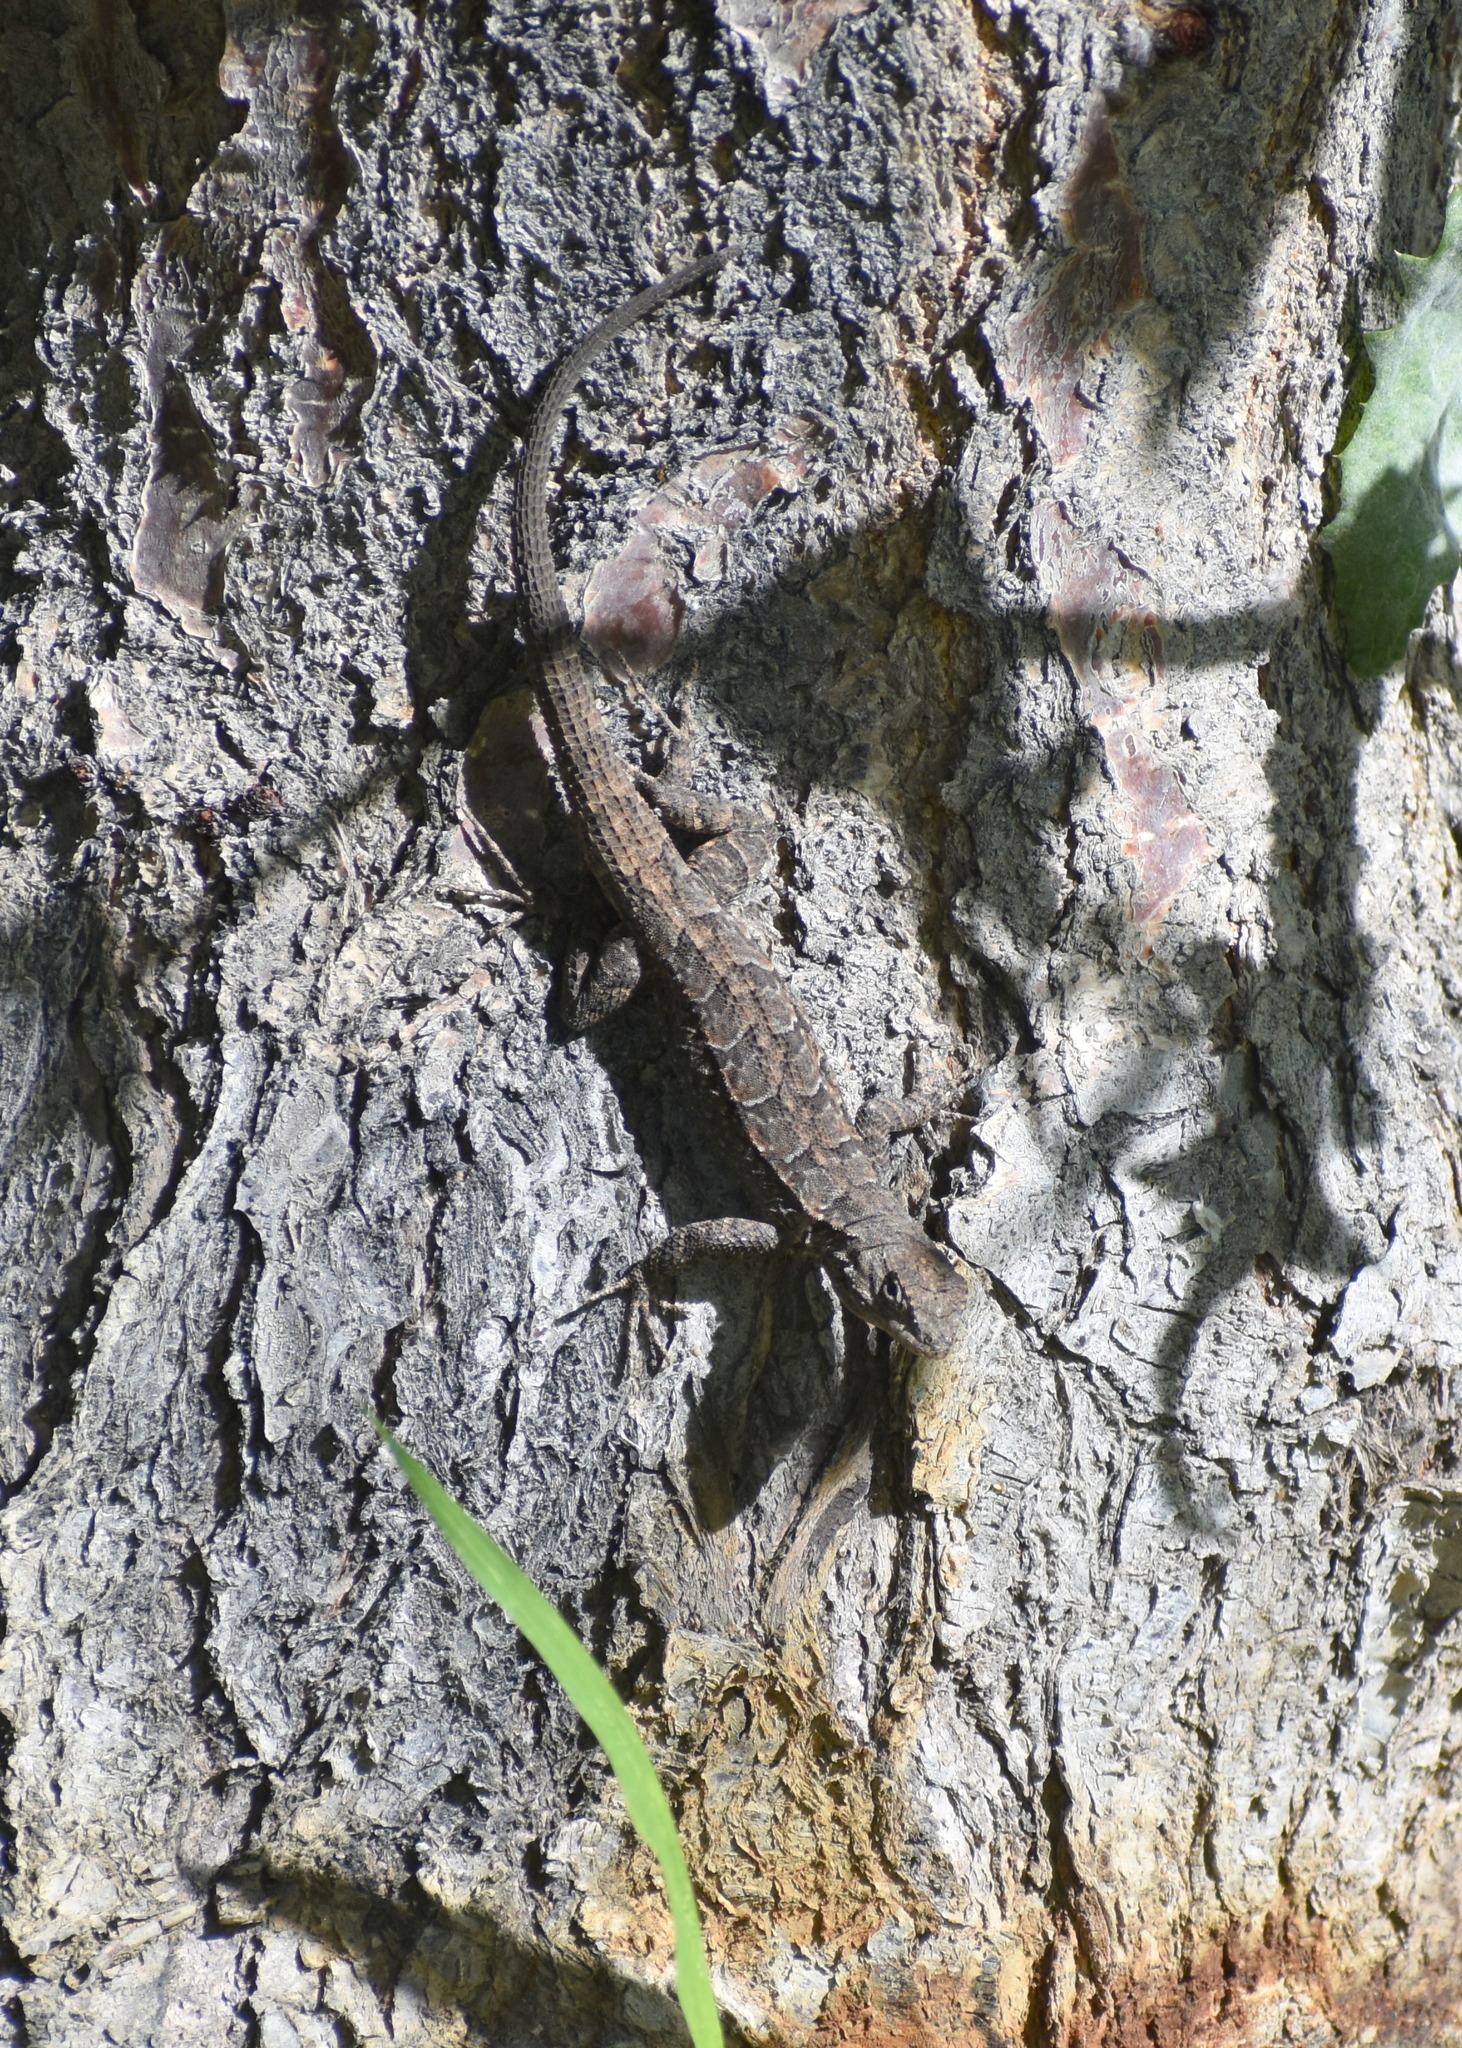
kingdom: Animalia
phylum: Chordata
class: Squamata
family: Phrynosomatidae
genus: Urosaurus
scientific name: Urosaurus ornatus
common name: Ornate tree lizard
